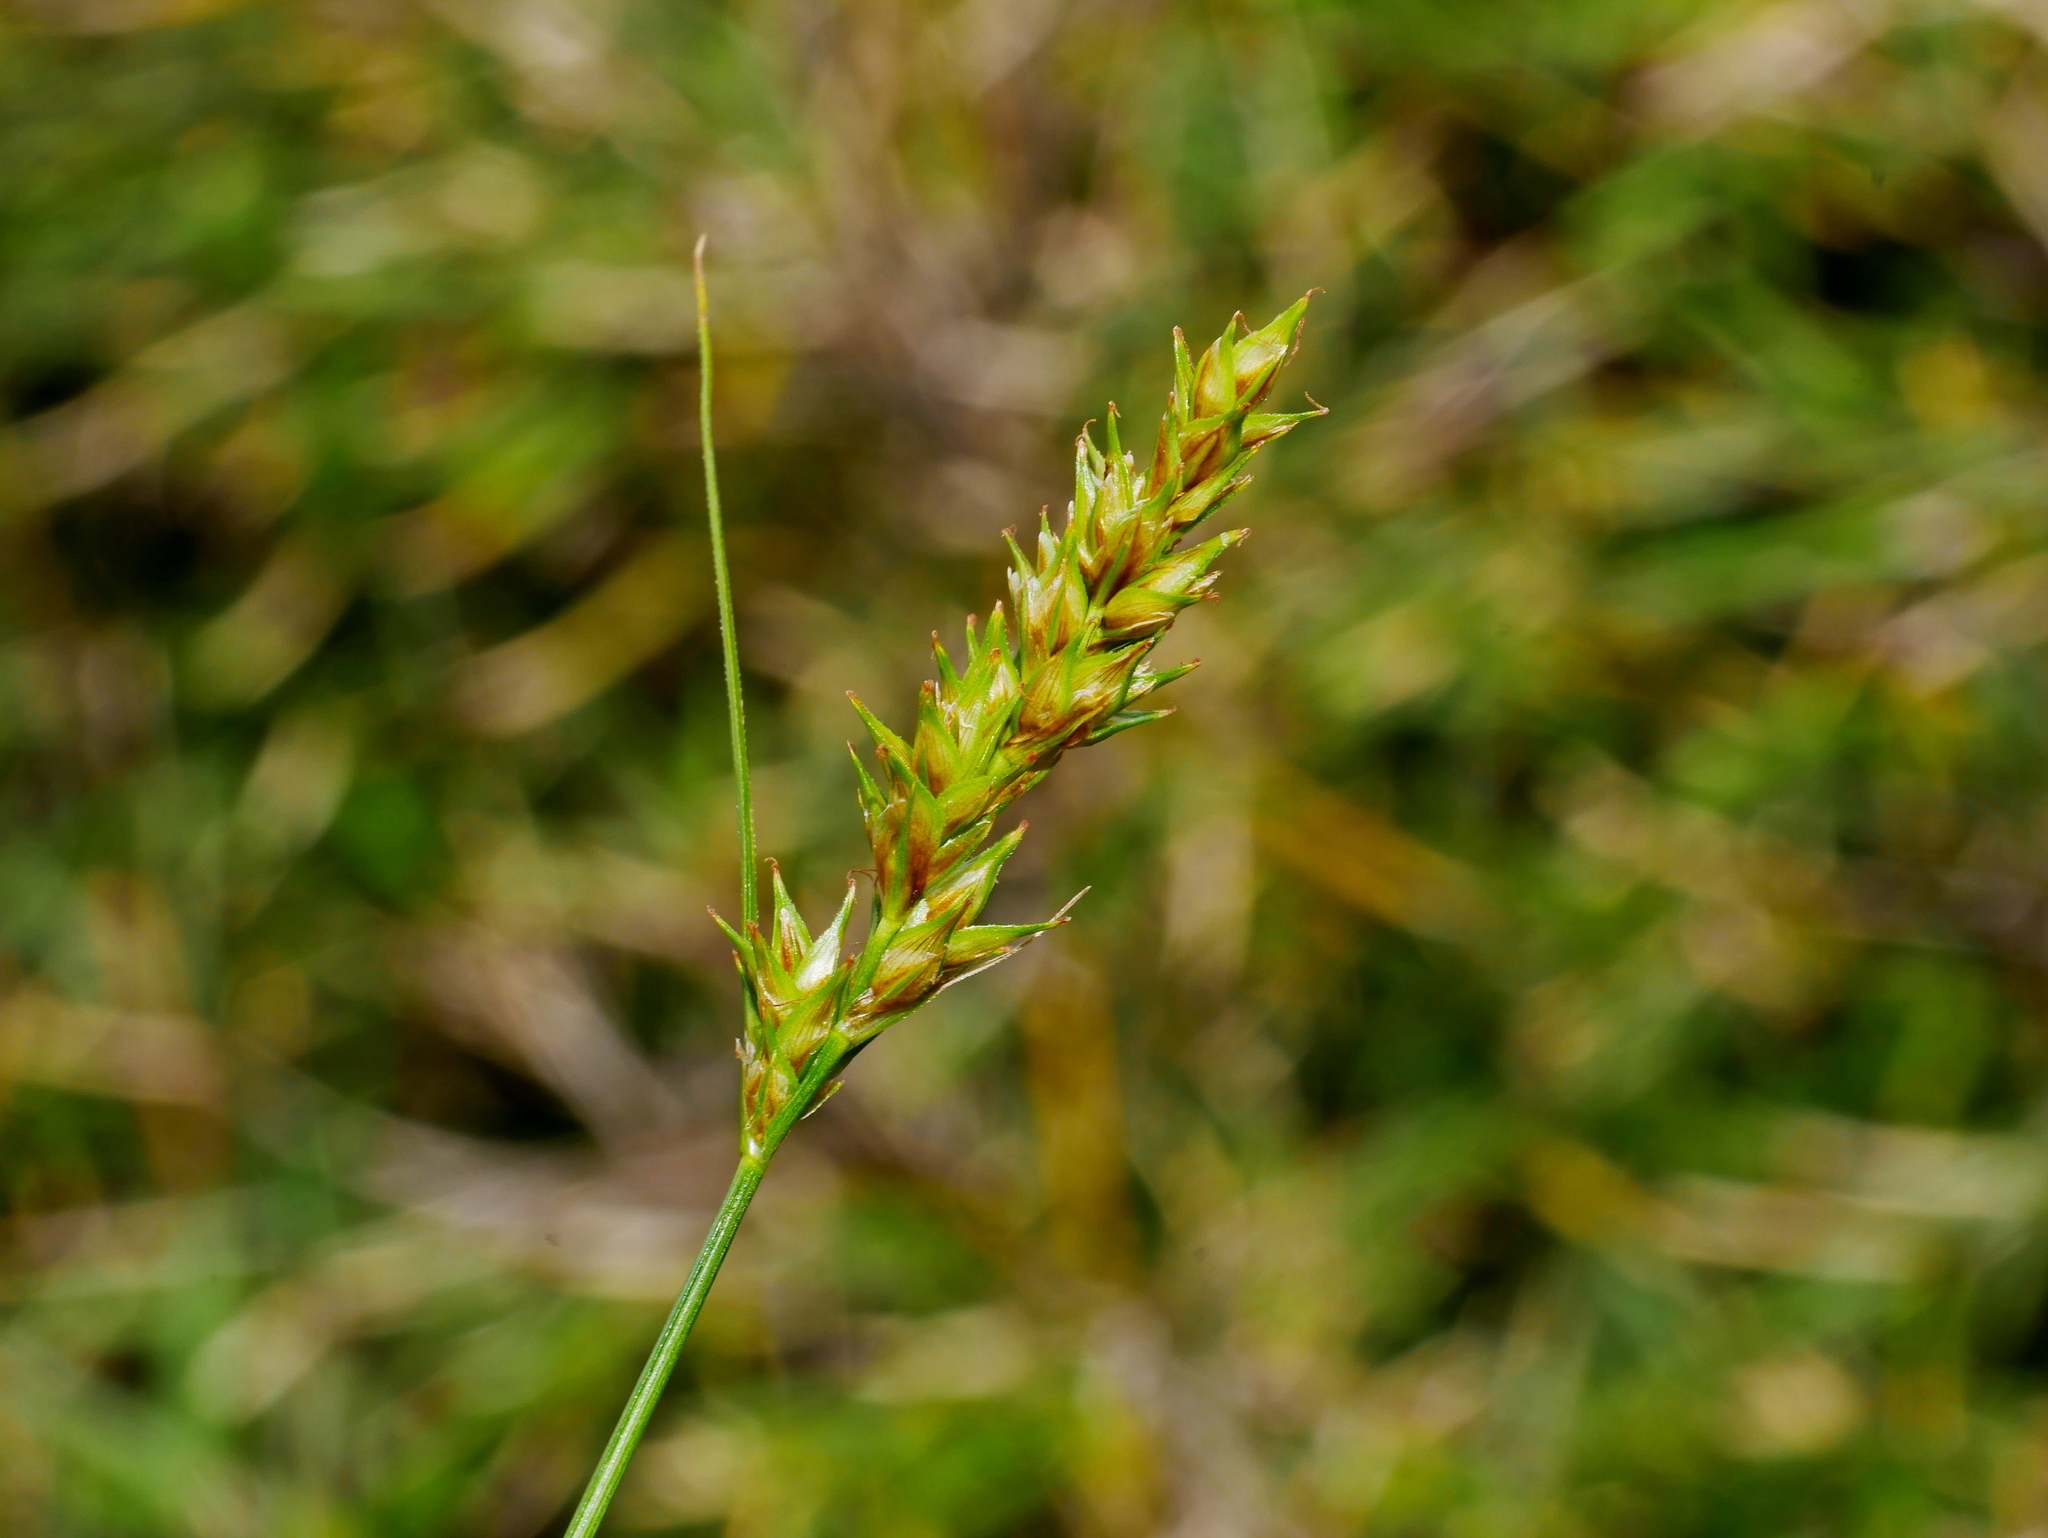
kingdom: Plantae
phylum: Tracheophyta
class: Liliopsida
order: Poales
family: Cyperaceae
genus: Carex
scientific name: Carex nubigena
